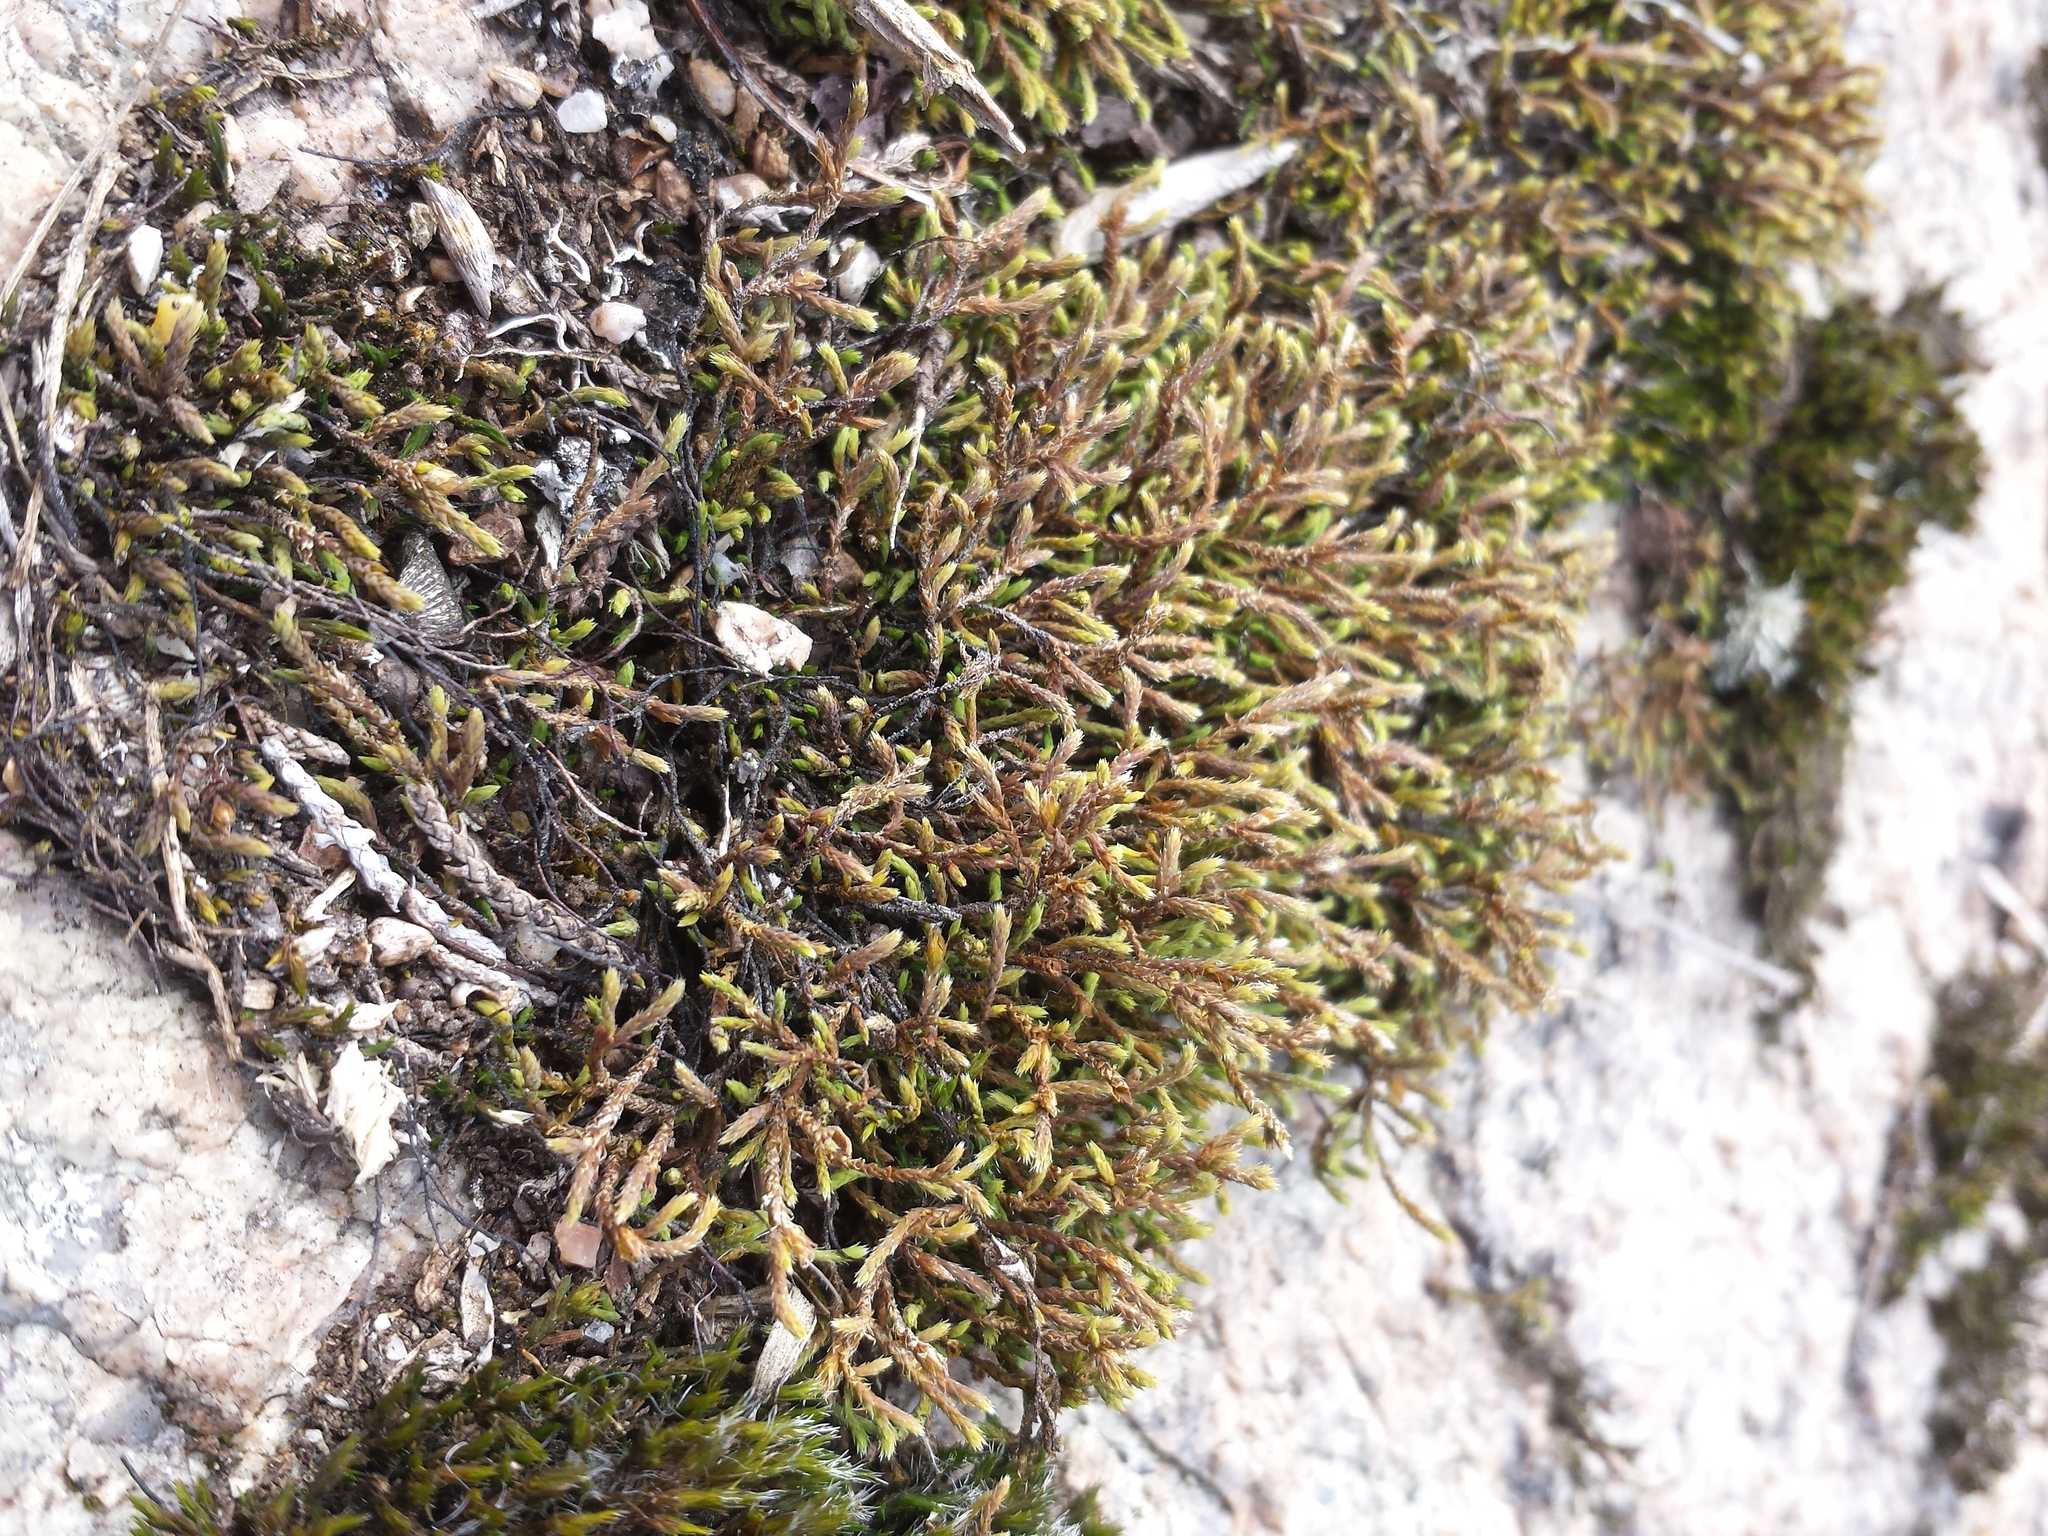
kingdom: Plantae
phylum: Bryophyta
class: Bryopsida
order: Hedwigiales
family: Hedwigiaceae
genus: Hedwigia
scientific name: Hedwigia ciliata
